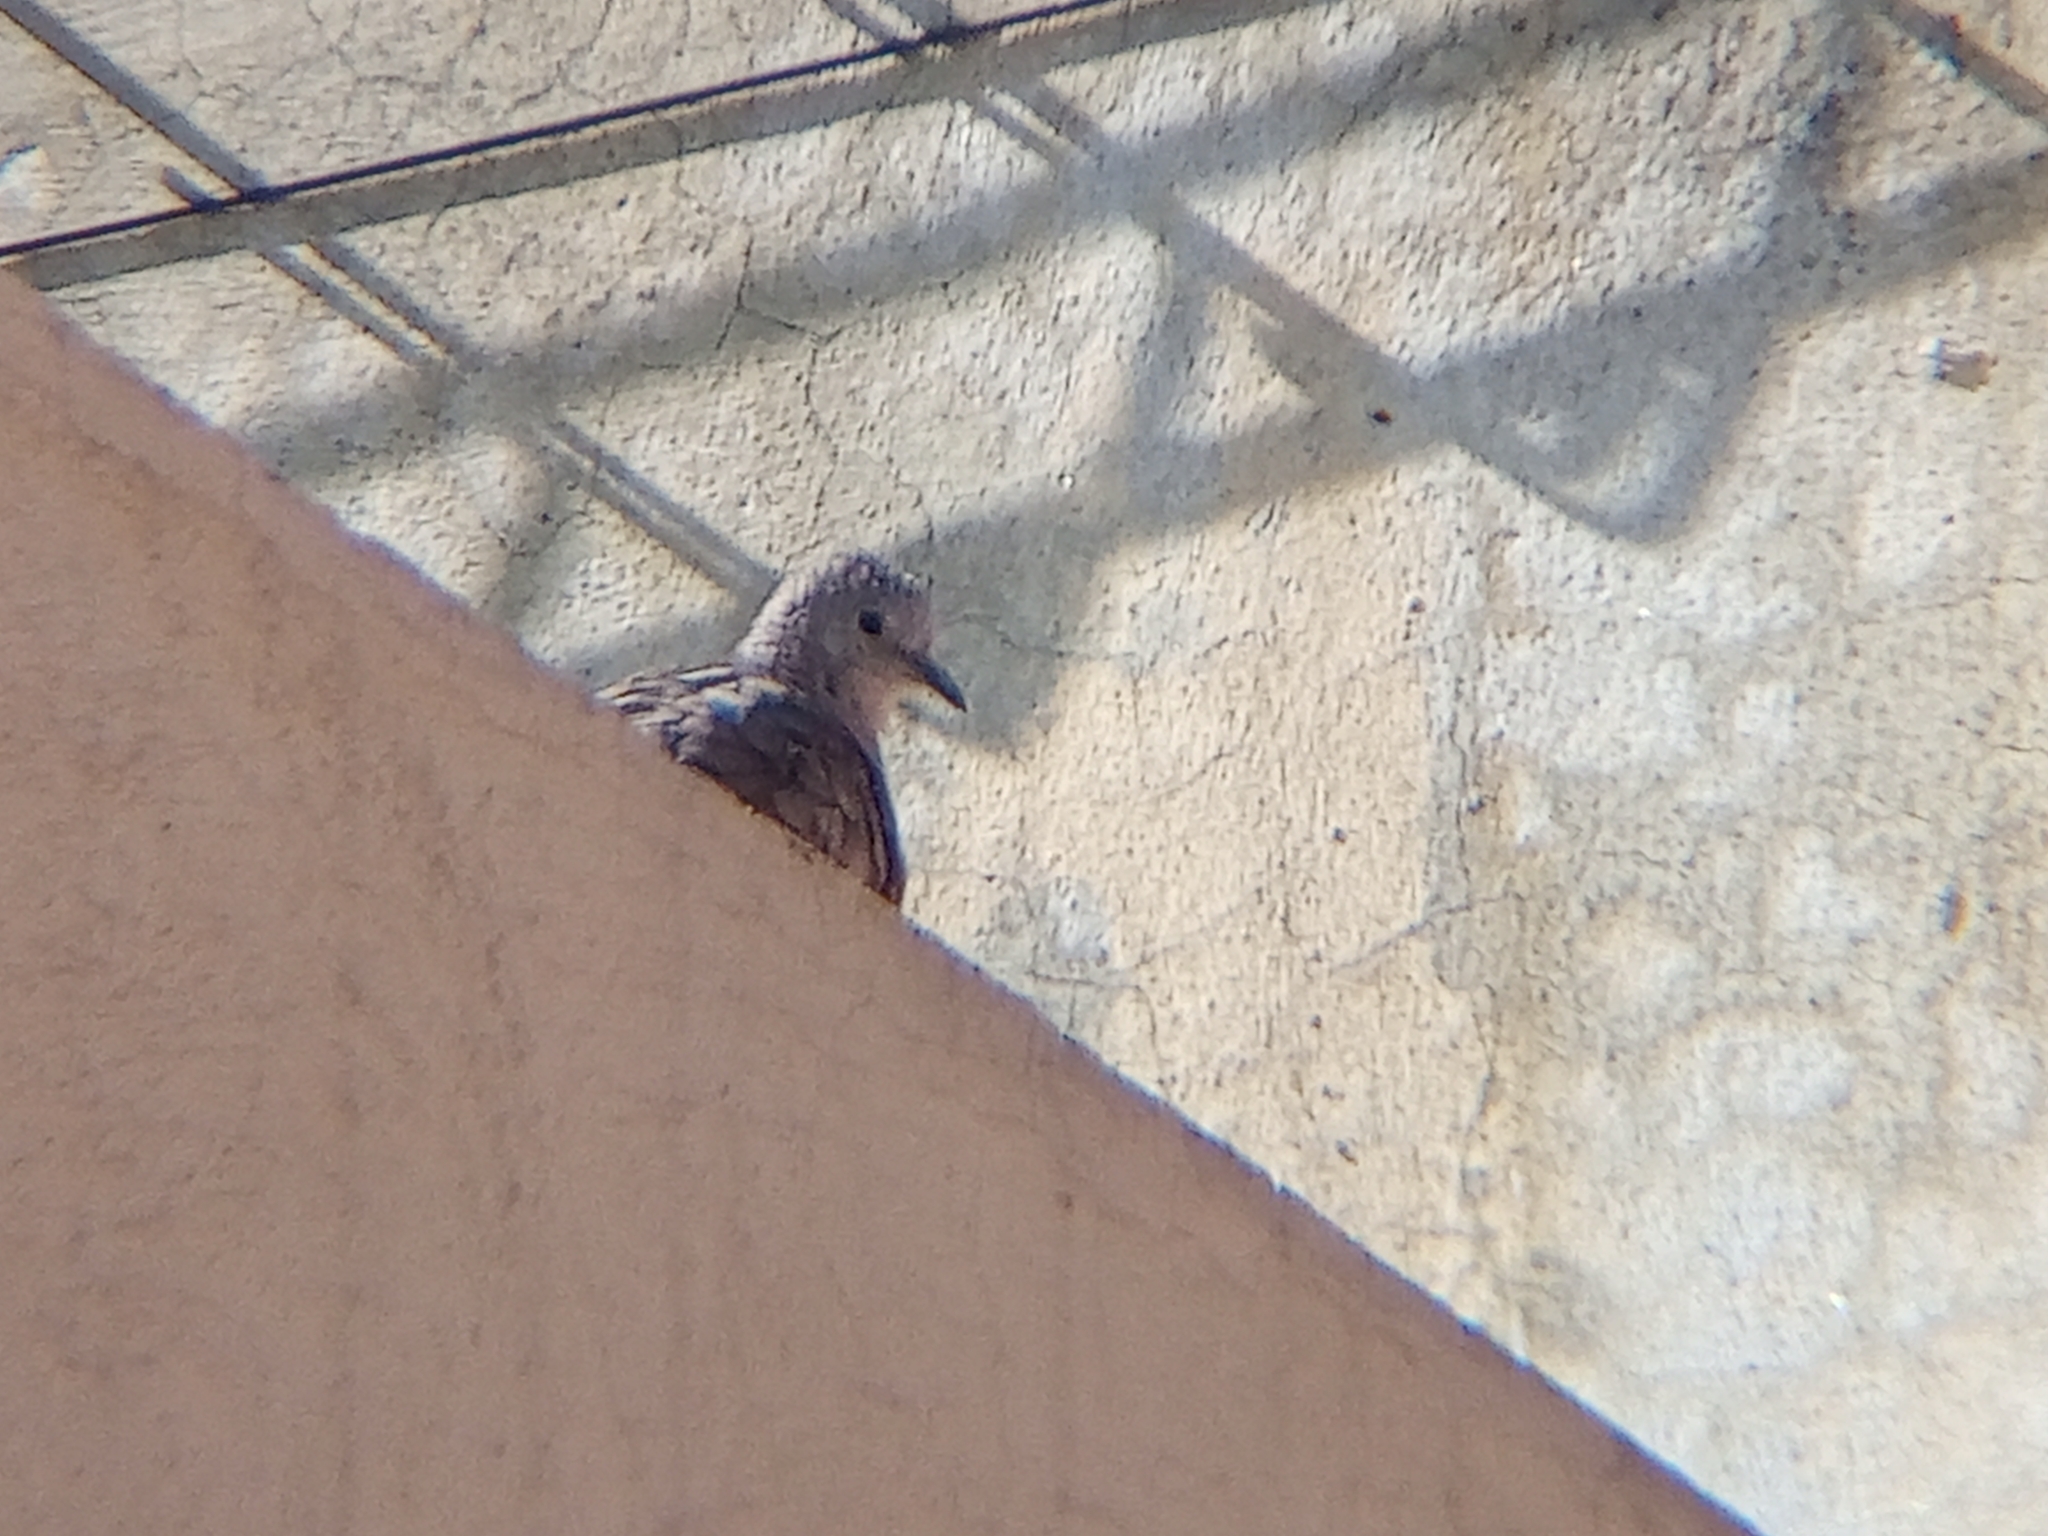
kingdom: Animalia
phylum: Chordata
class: Aves
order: Columbiformes
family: Columbidae
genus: Columbina
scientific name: Columbina inca
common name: Inca dove
